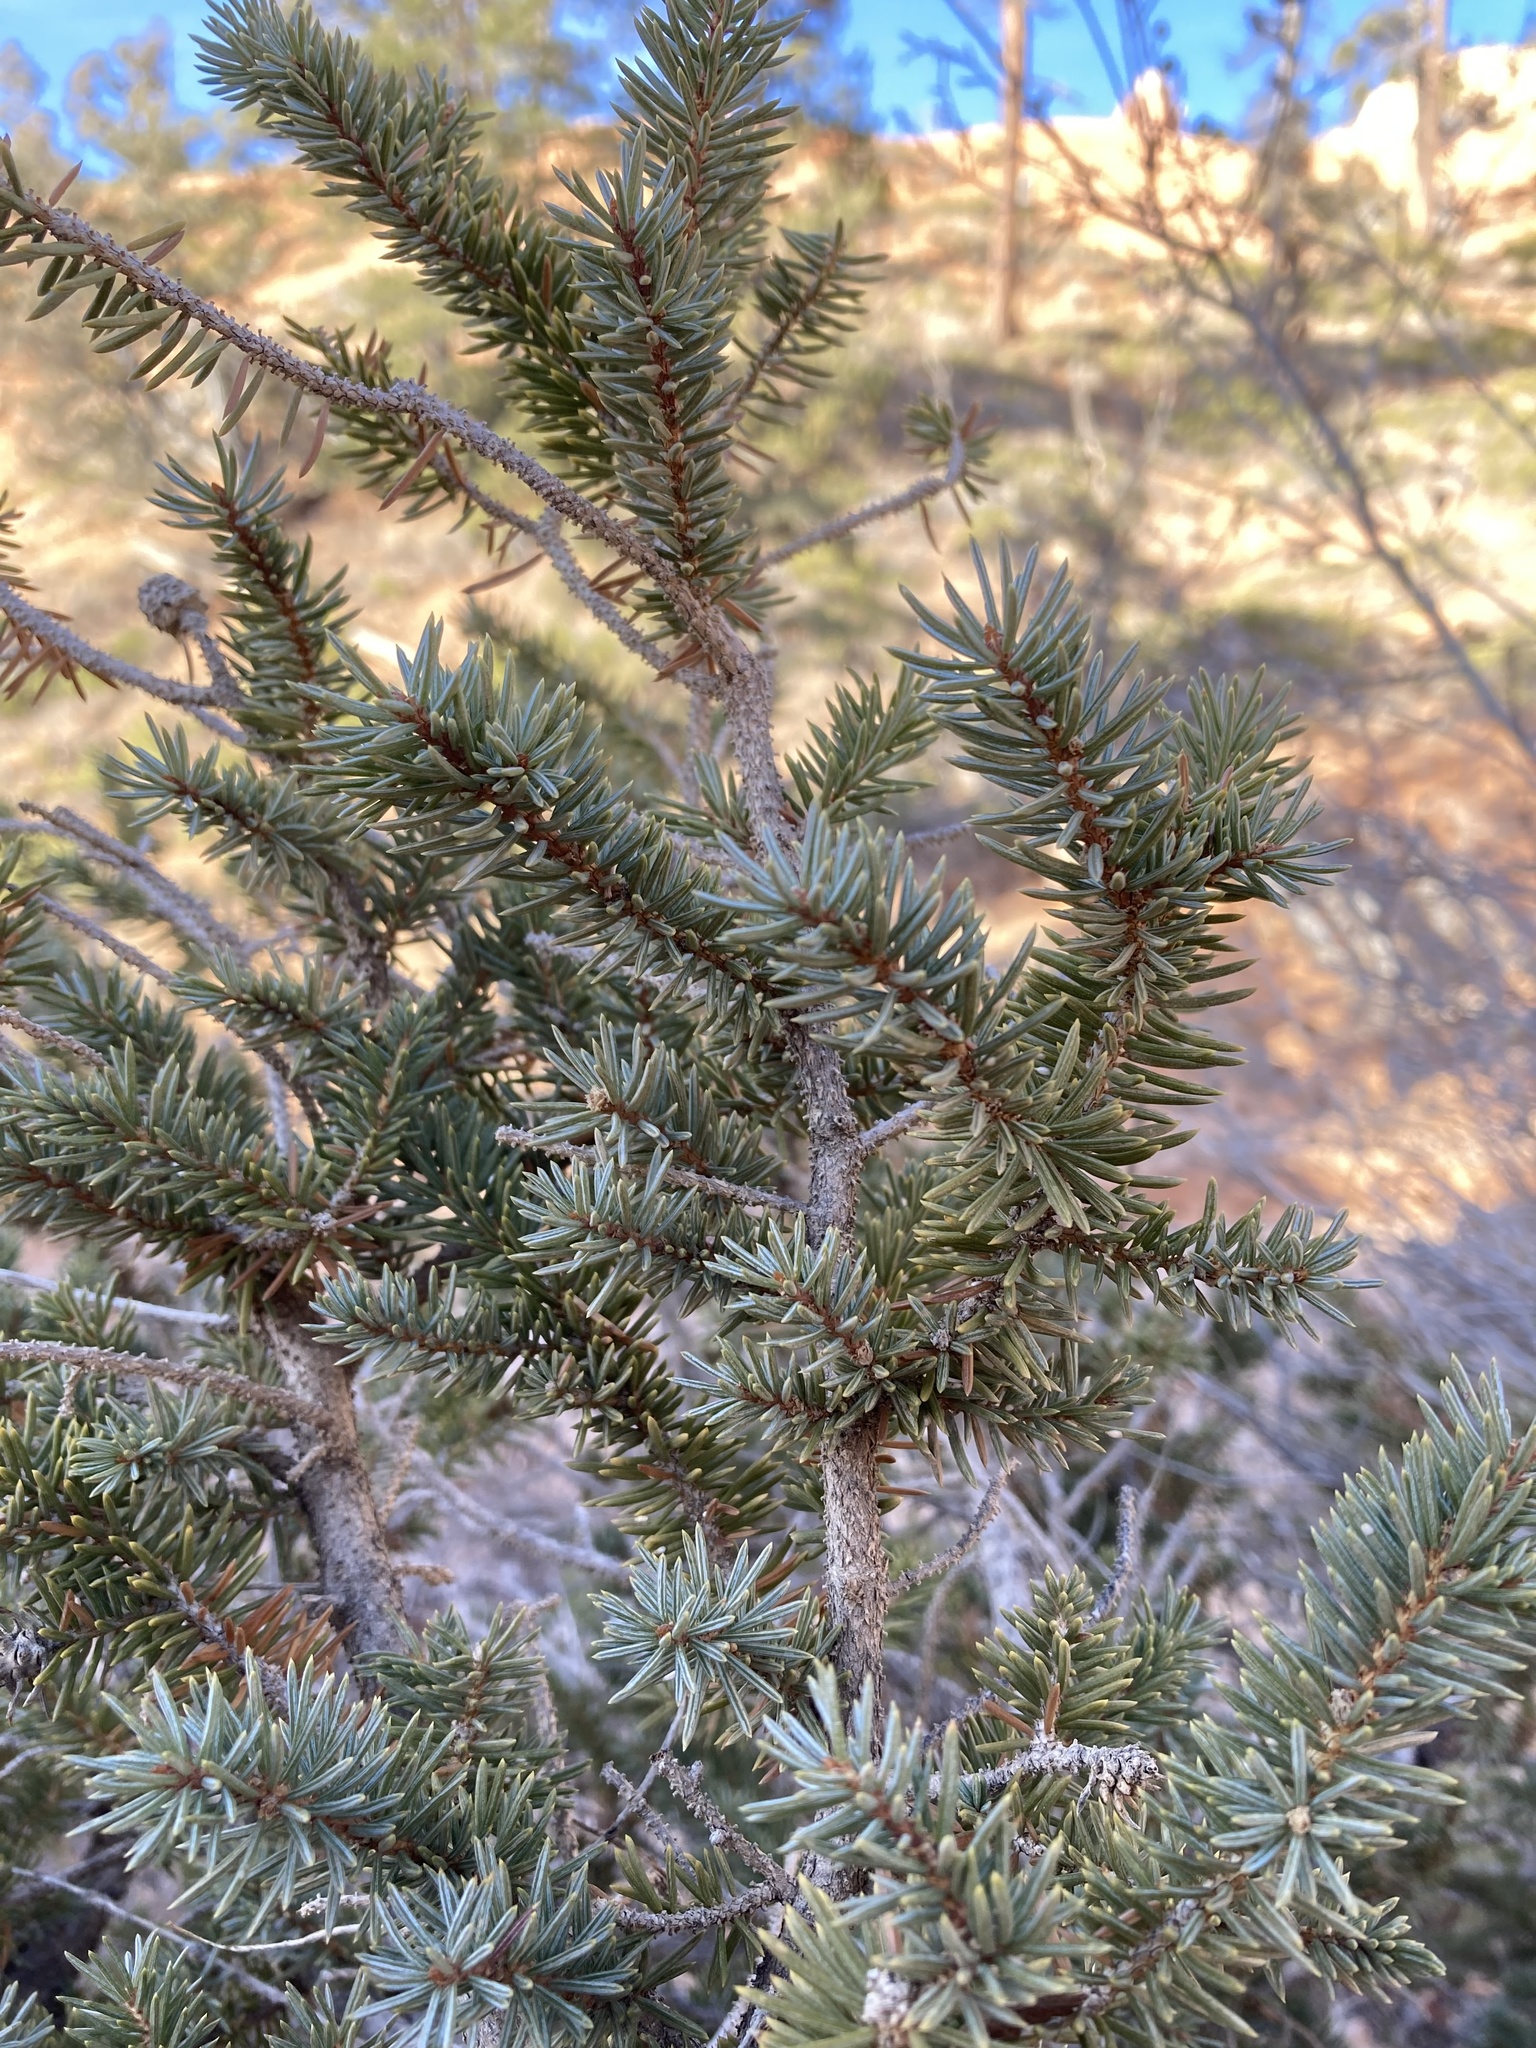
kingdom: Plantae
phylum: Tracheophyta
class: Pinopsida
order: Pinales
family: Pinaceae
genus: Picea
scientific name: Picea engelmannii
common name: Engelmann spruce
